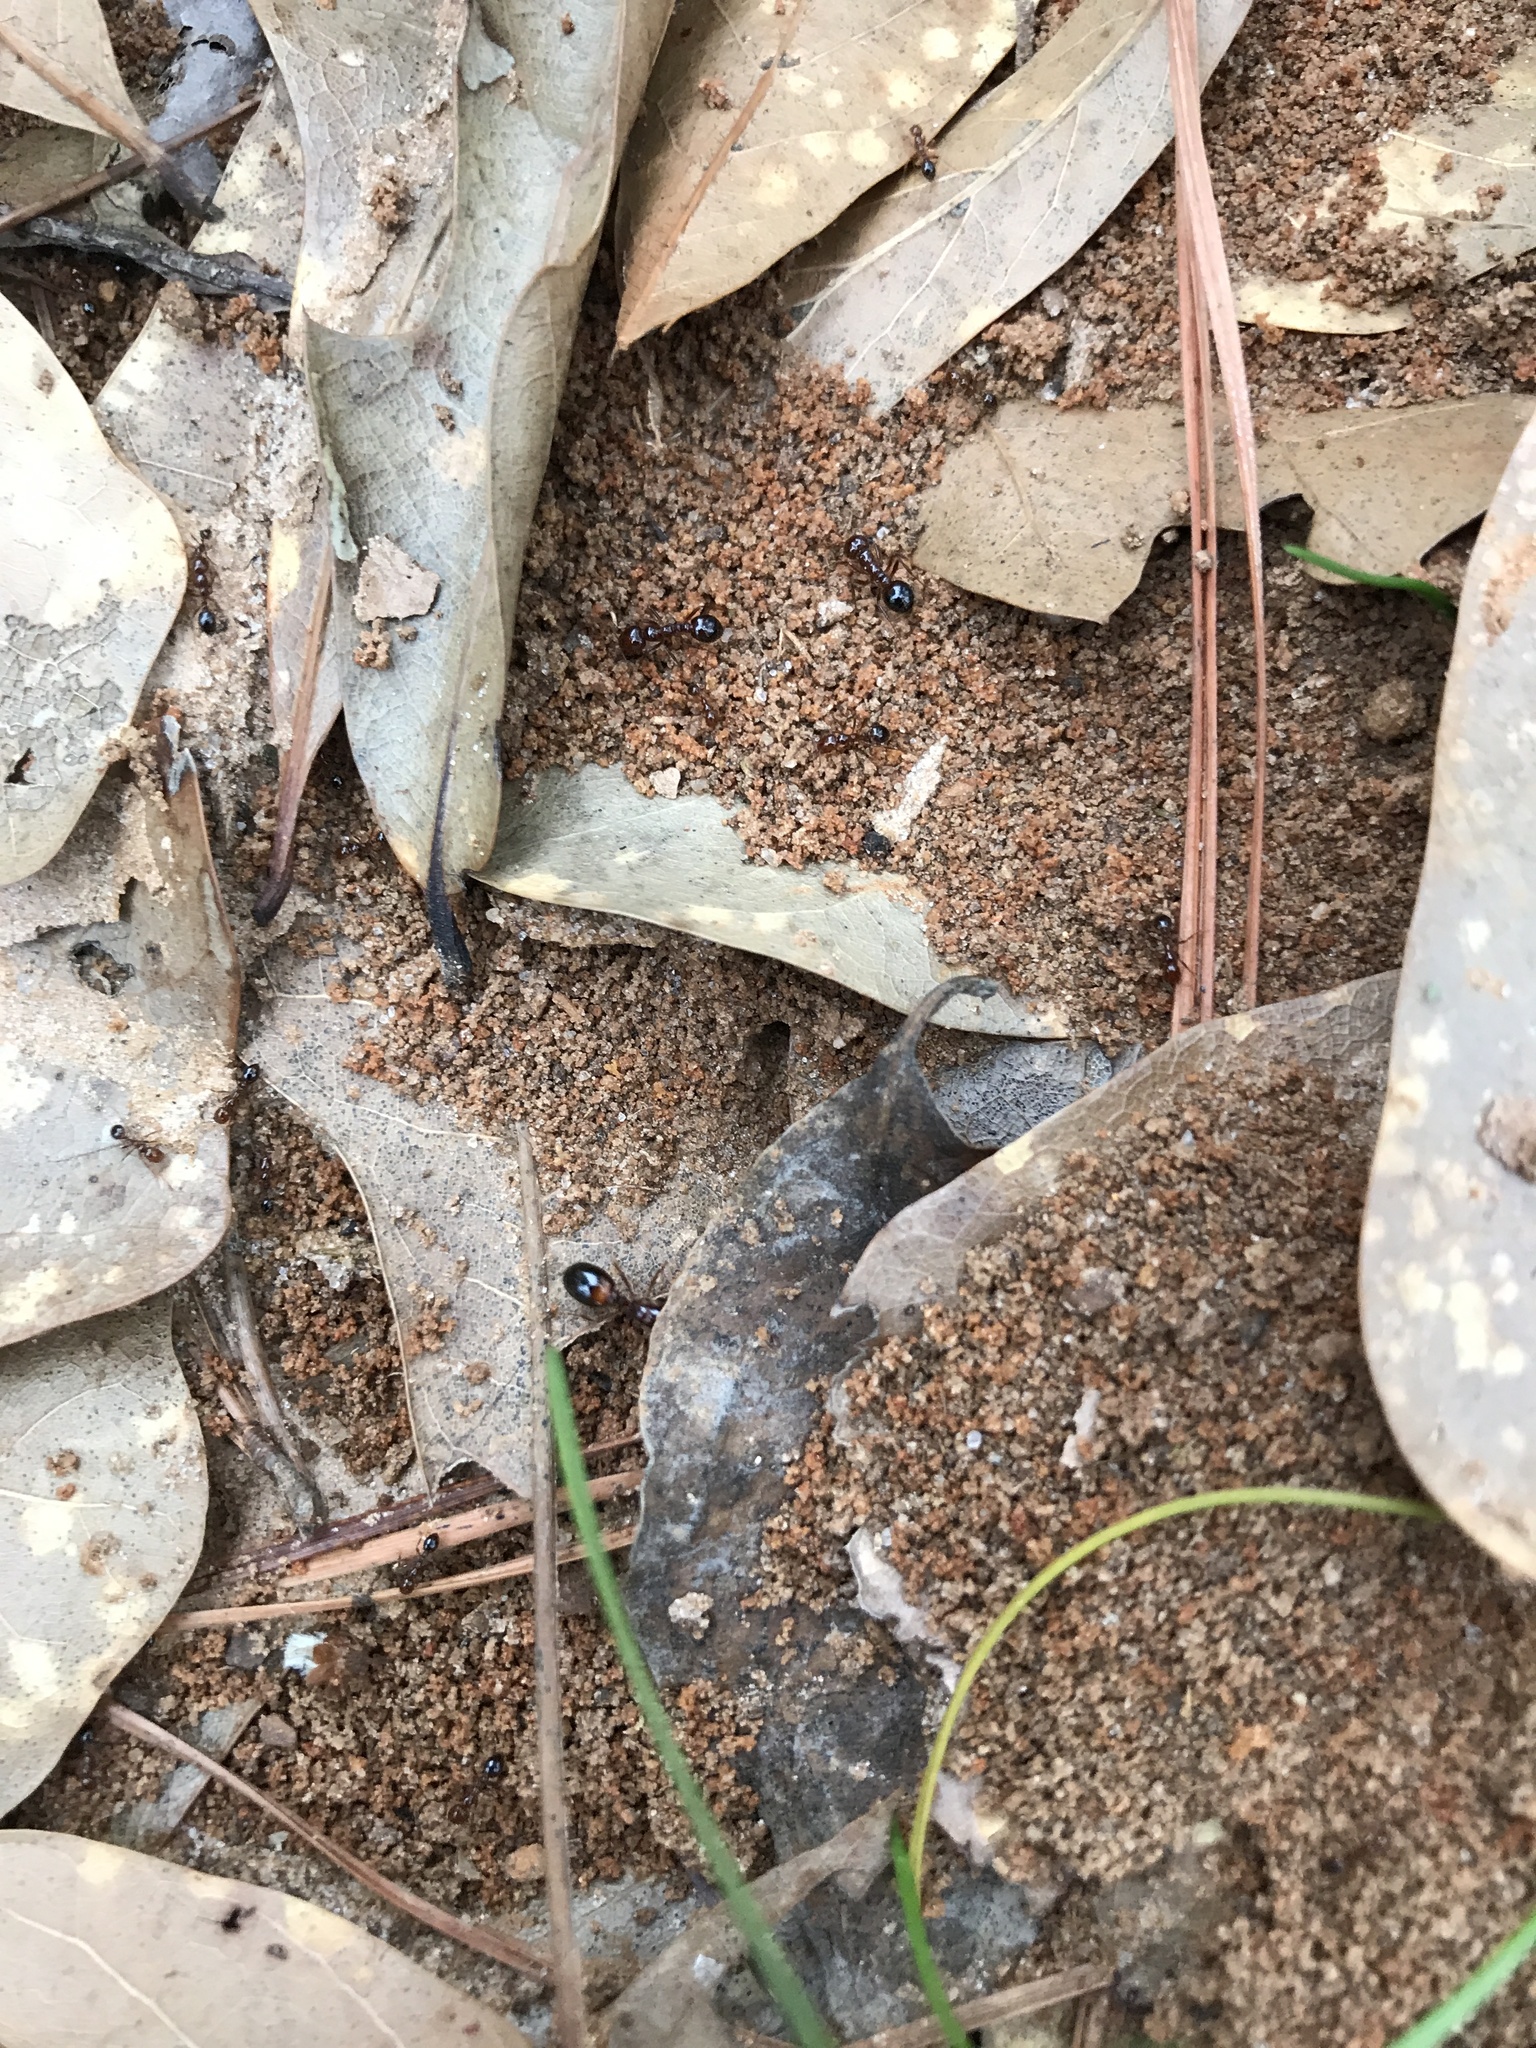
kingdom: Animalia
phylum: Arthropoda
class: Insecta
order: Hymenoptera
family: Formicidae
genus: Solenopsis
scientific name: Solenopsis invicta
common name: Red imported fire ant
